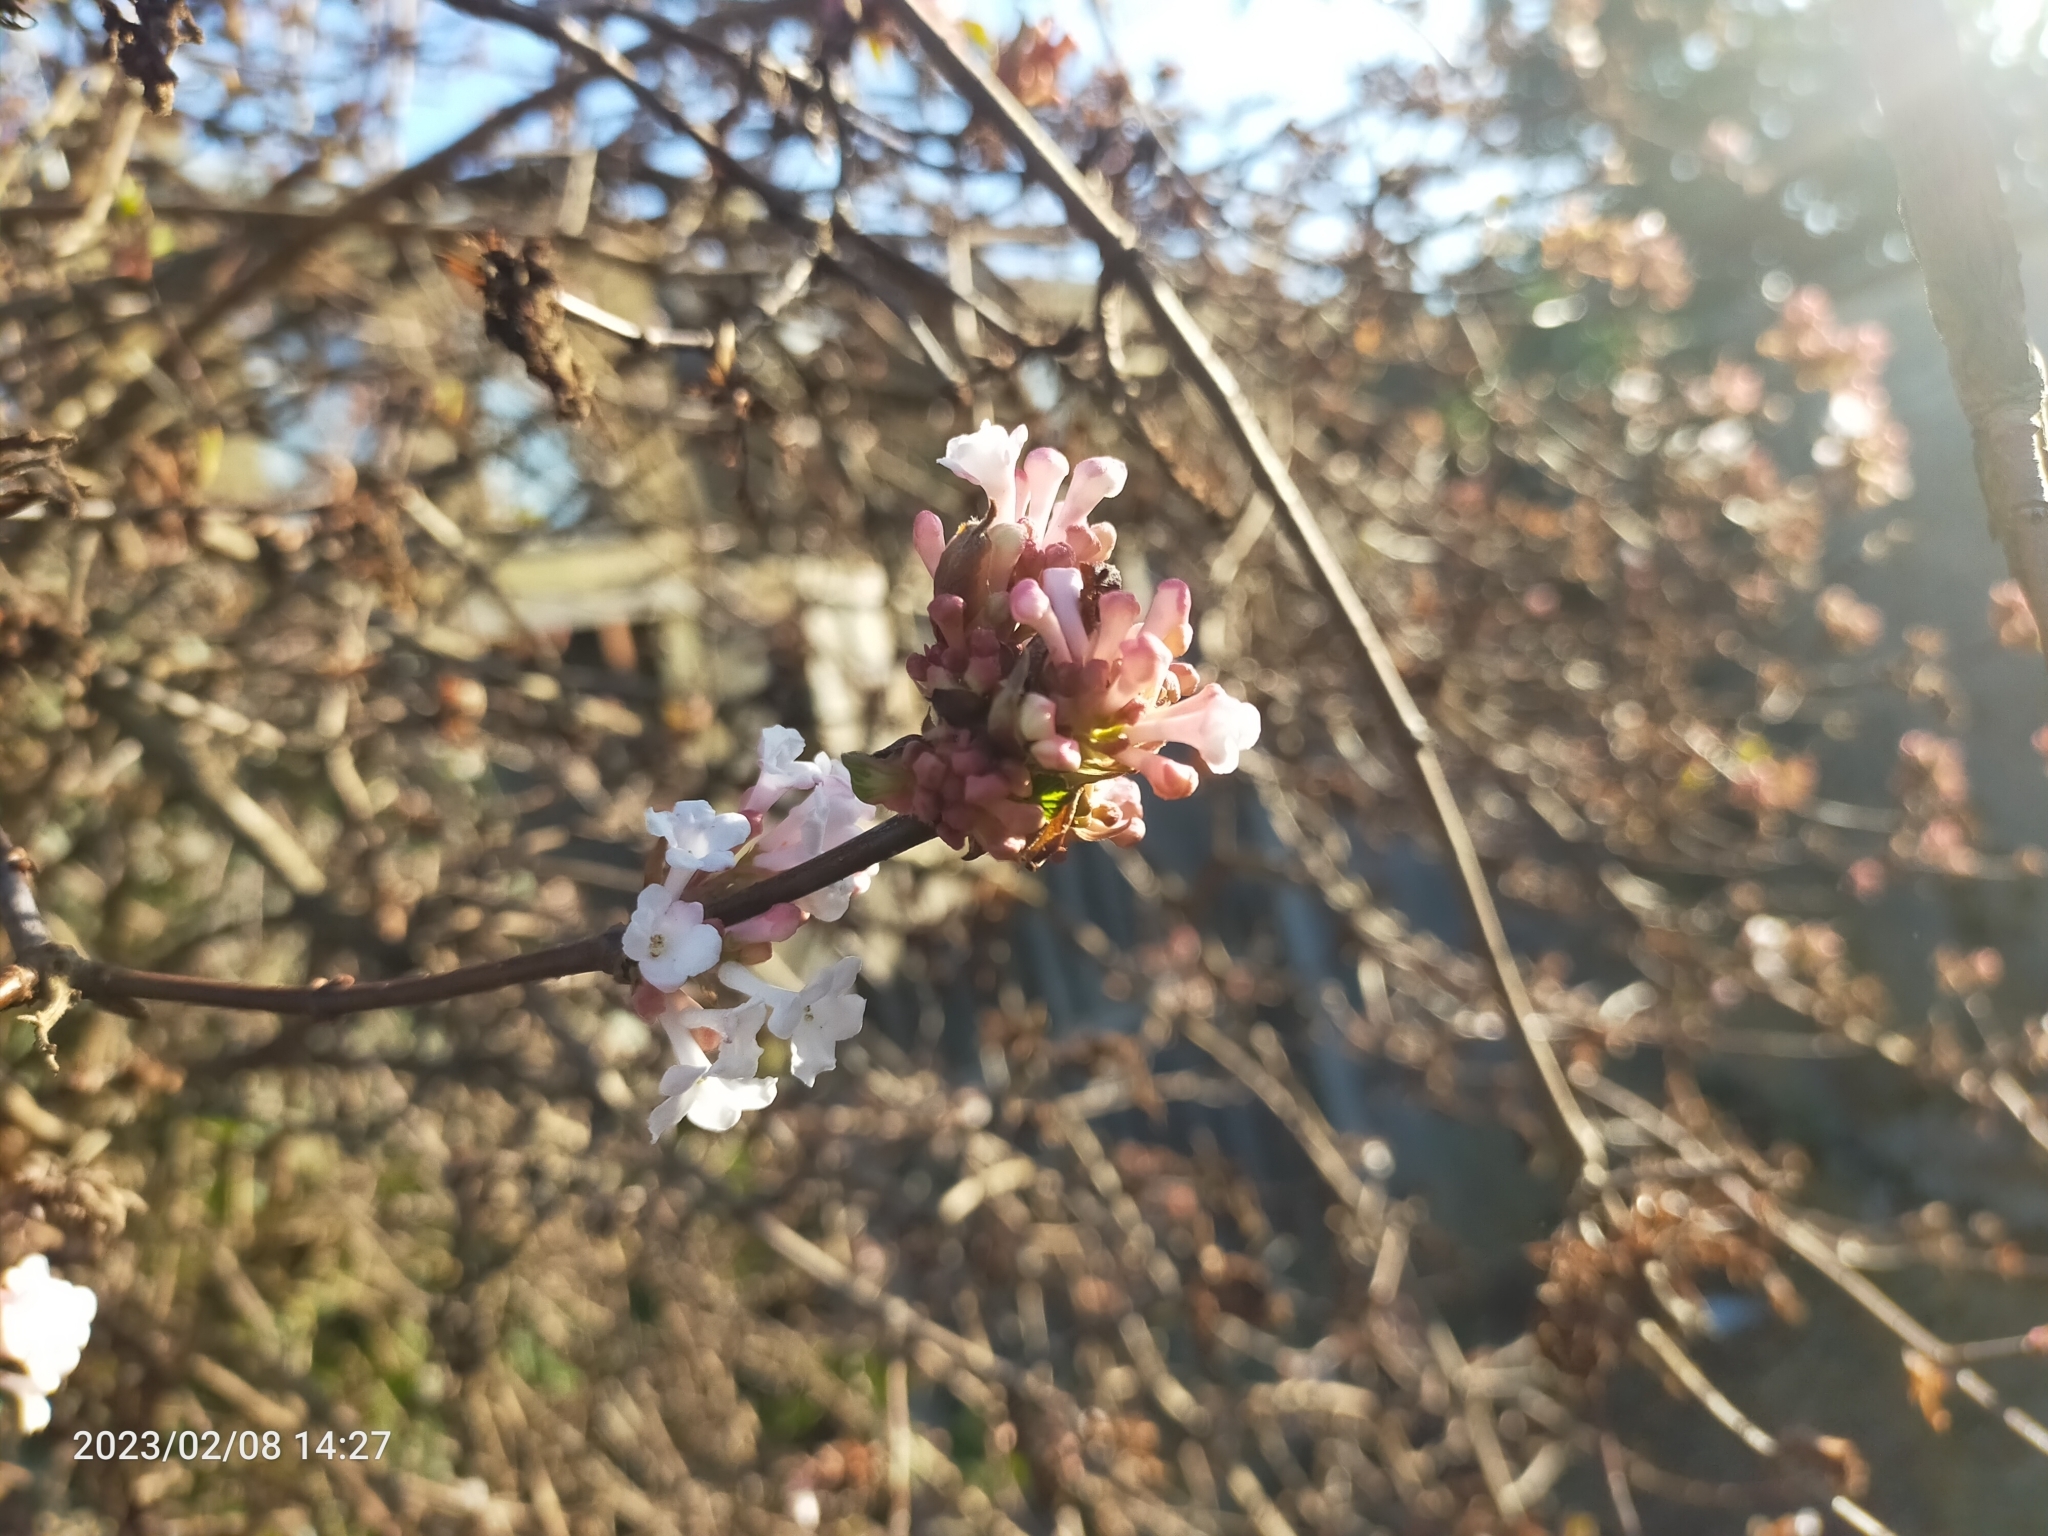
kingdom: Plantae
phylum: Tracheophyta
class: Magnoliopsida
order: Dipsacales
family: Viburnaceae
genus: Viburnum
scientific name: Viburnum
